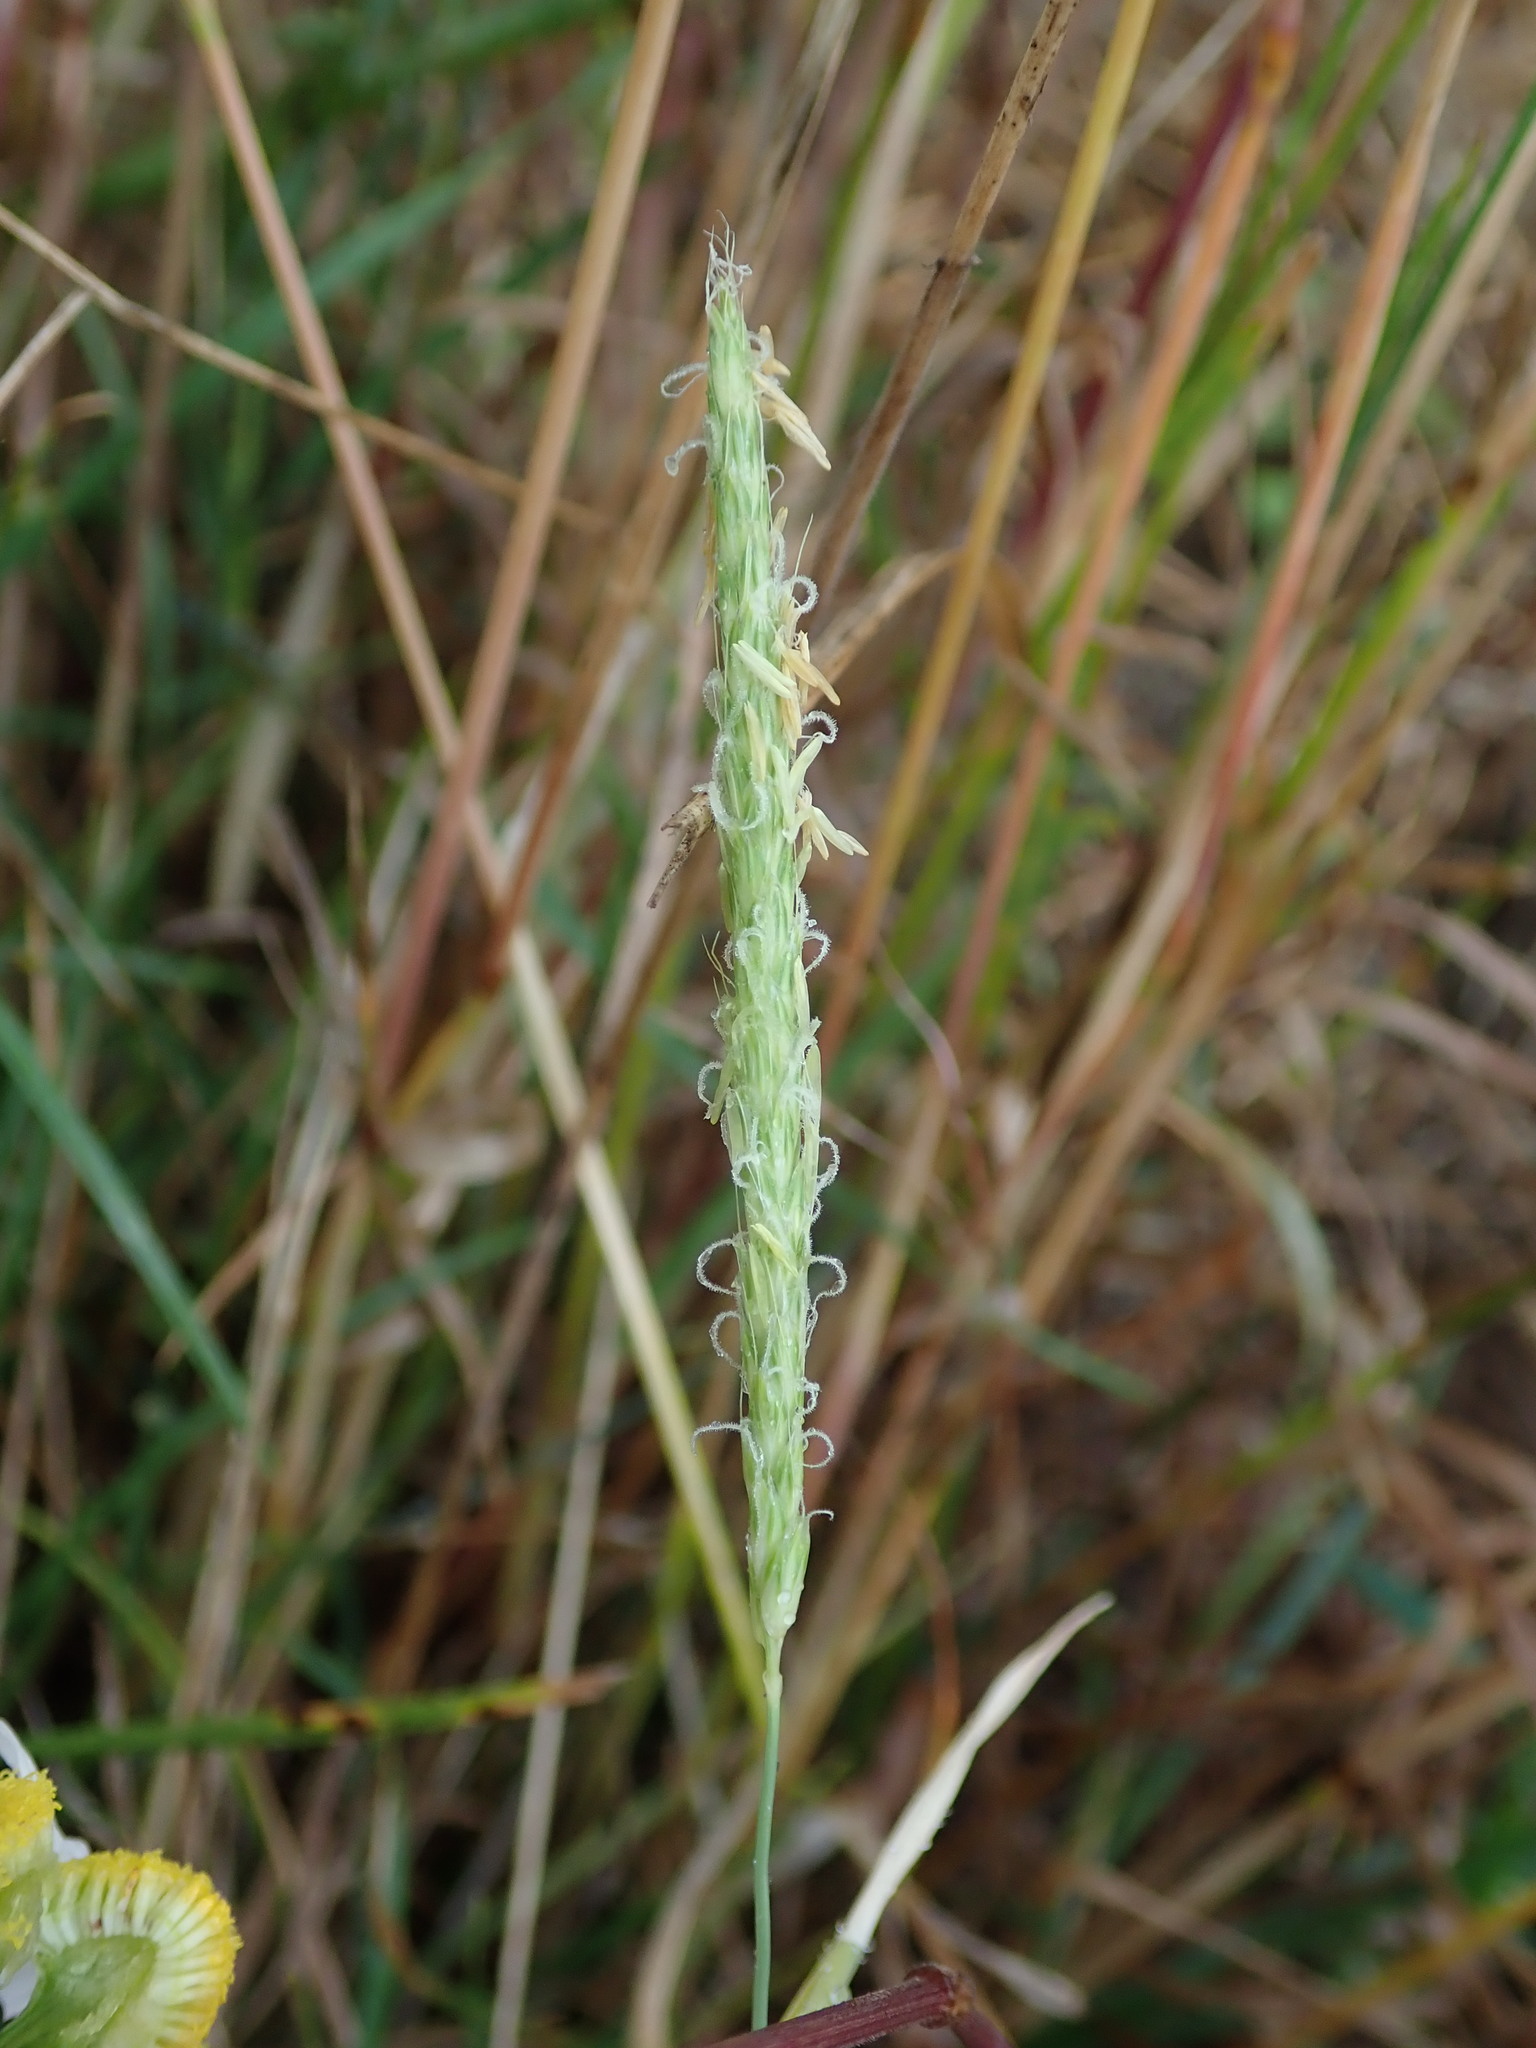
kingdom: Plantae
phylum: Tracheophyta
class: Liliopsida
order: Poales
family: Poaceae
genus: Alopecurus
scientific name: Alopecurus myosuroides
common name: Black-grass
